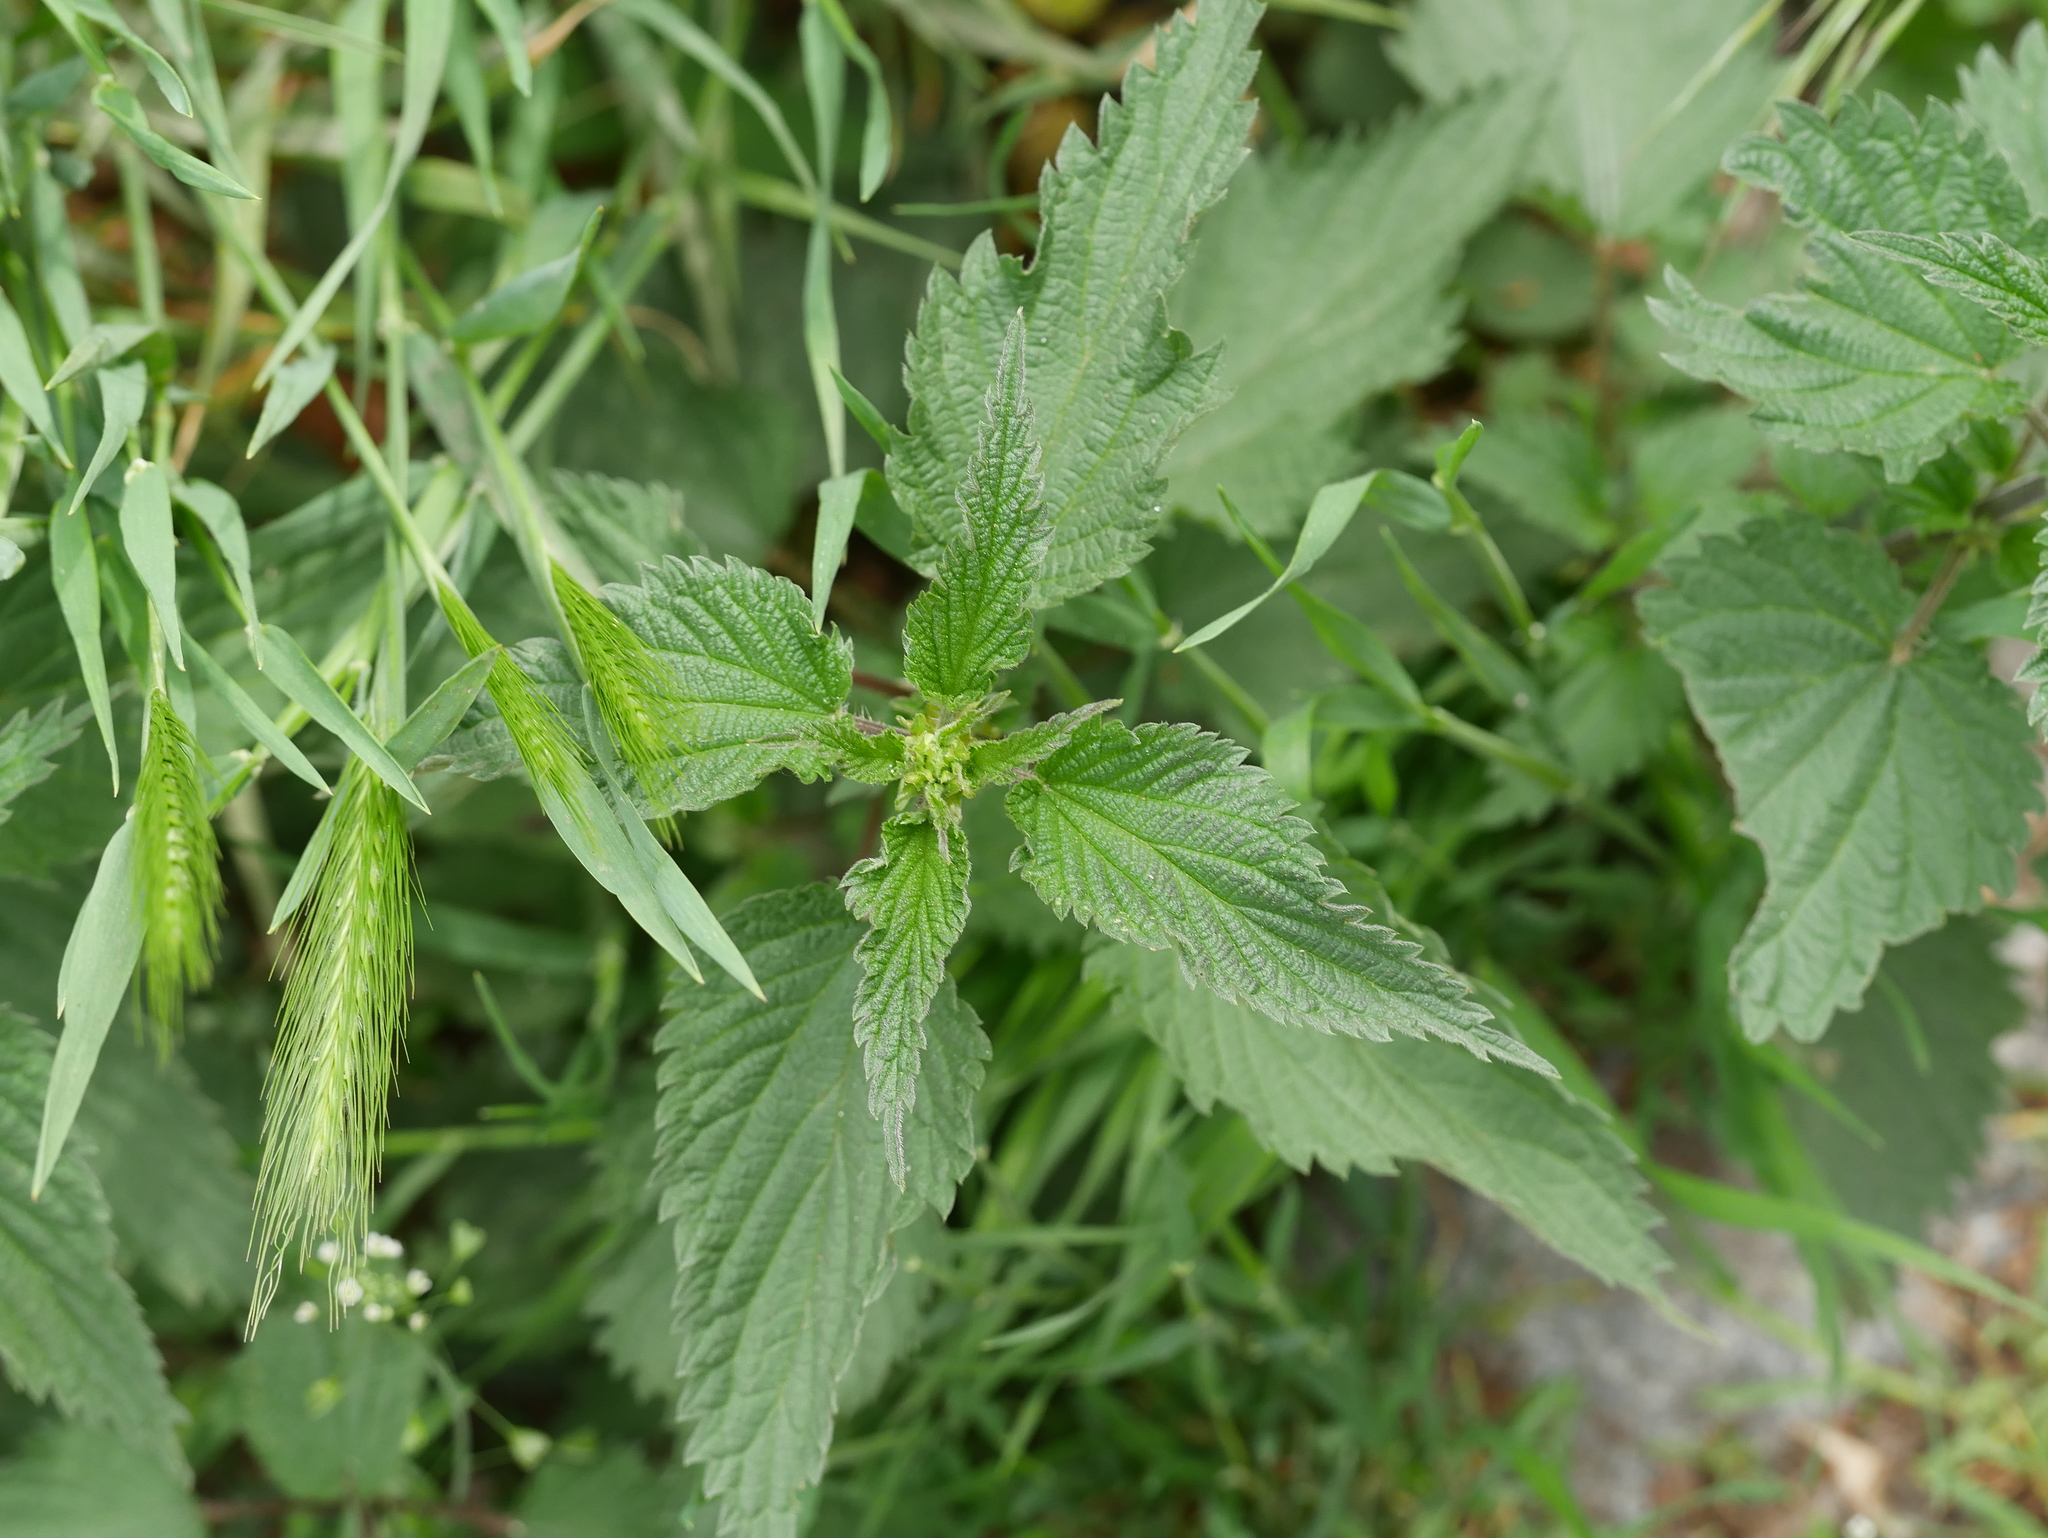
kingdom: Plantae
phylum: Tracheophyta
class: Magnoliopsida
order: Rosales
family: Urticaceae
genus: Urtica
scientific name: Urtica dioica
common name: Common nettle
